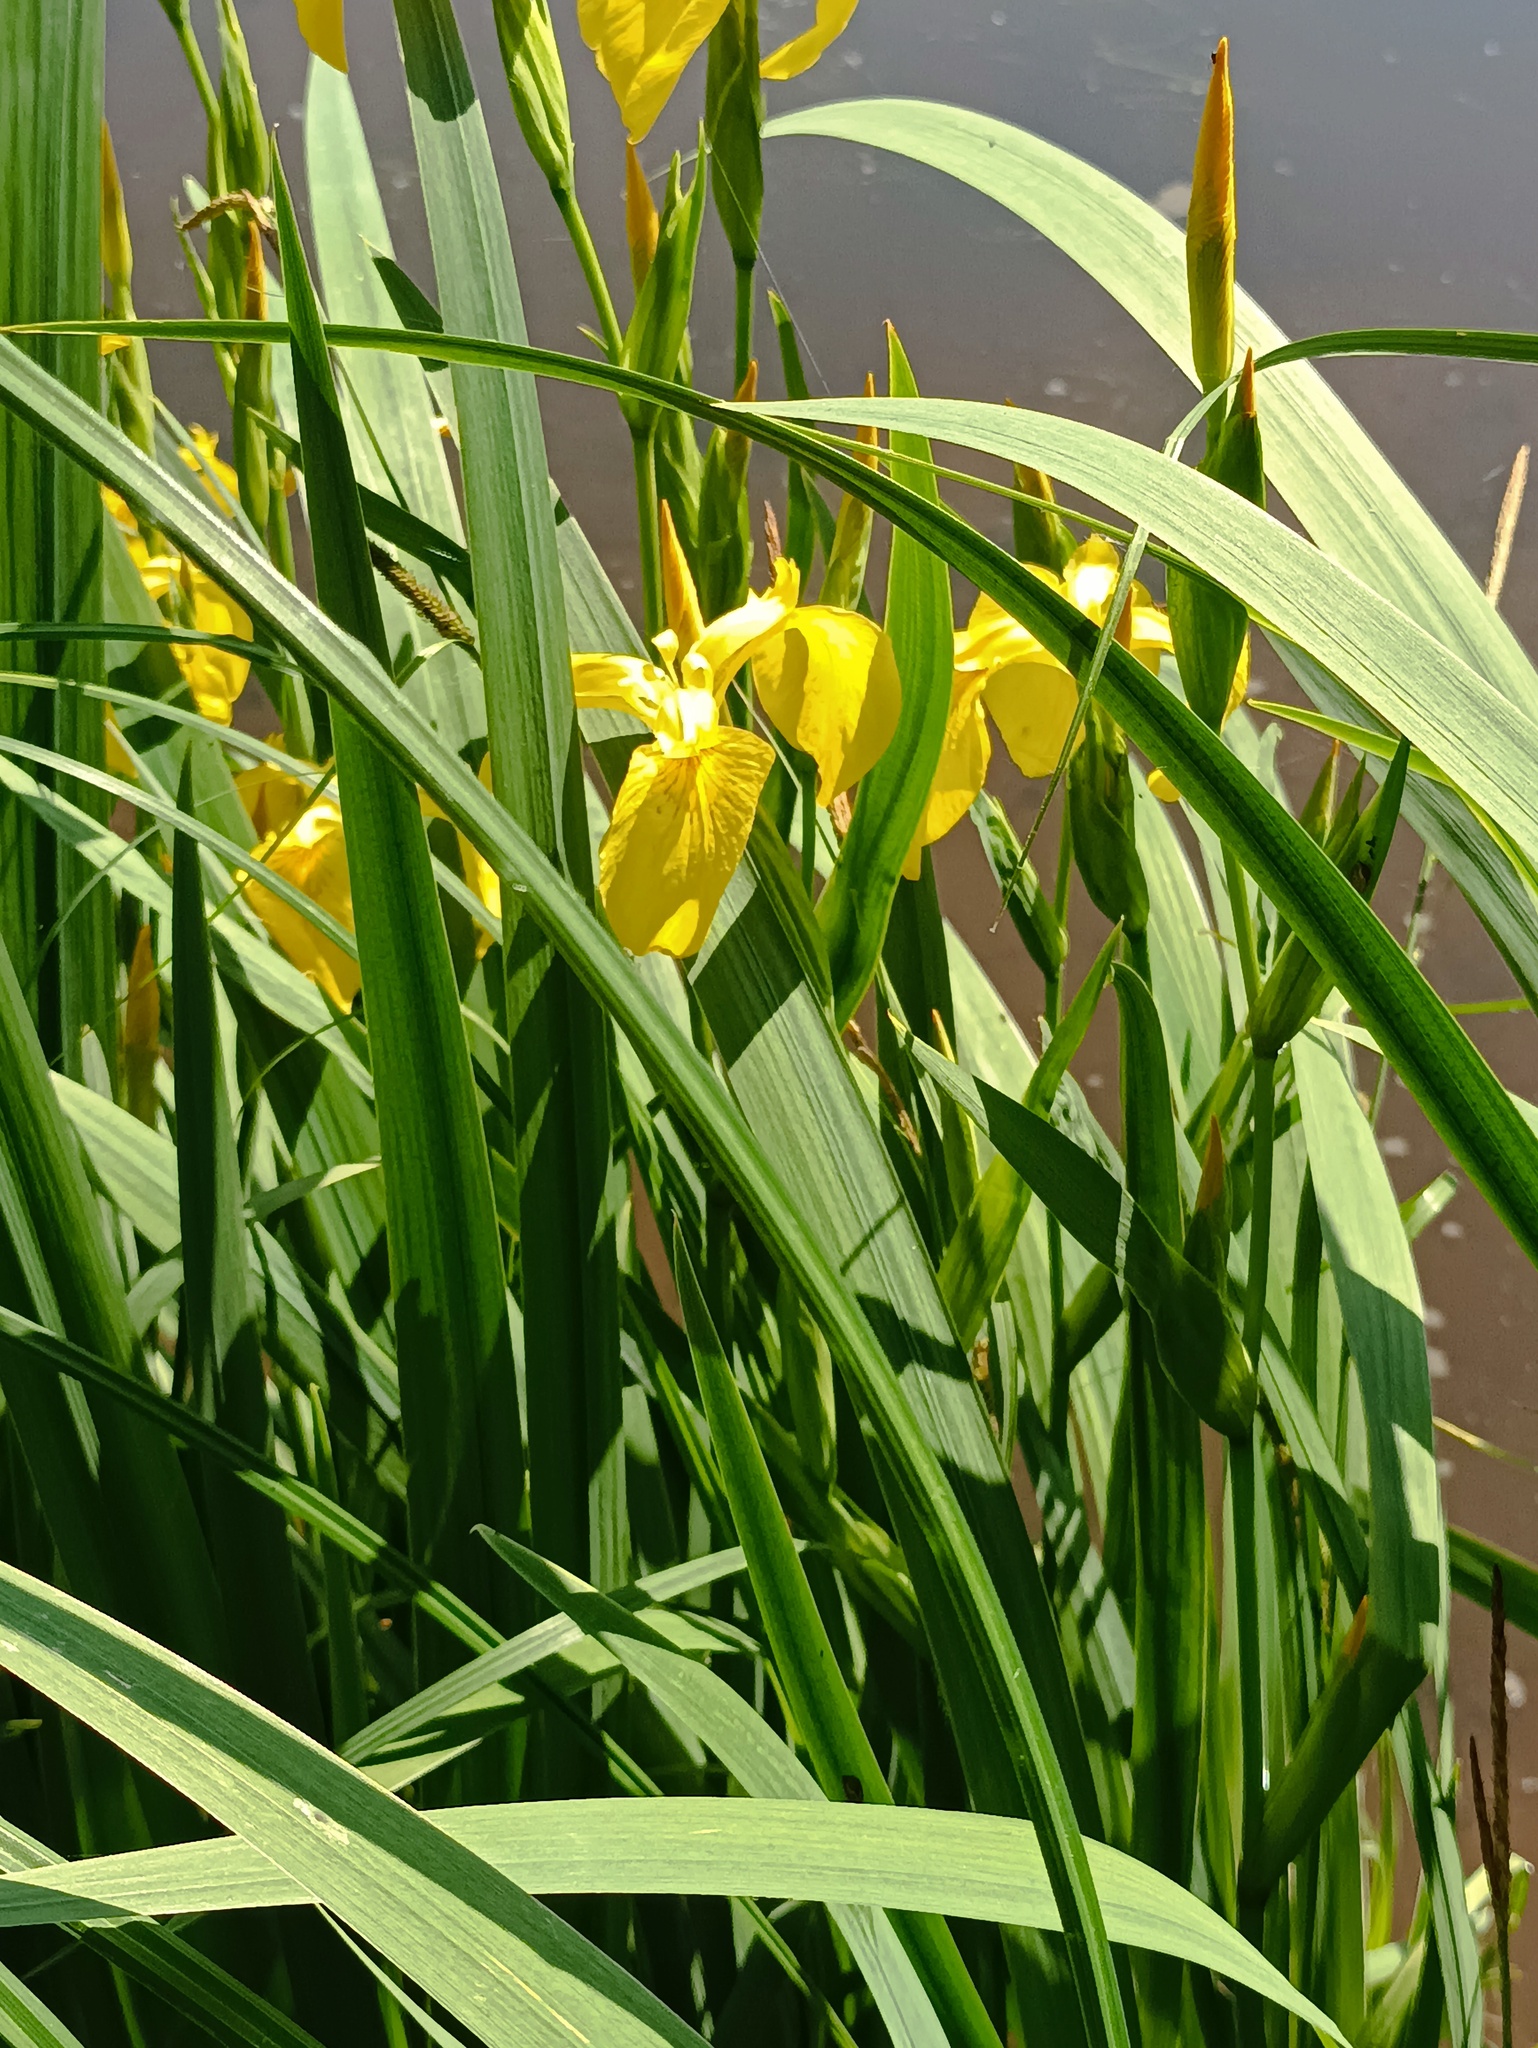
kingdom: Plantae
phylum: Tracheophyta
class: Liliopsida
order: Asparagales
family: Iridaceae
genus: Iris
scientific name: Iris pseudacorus
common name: Yellow flag
